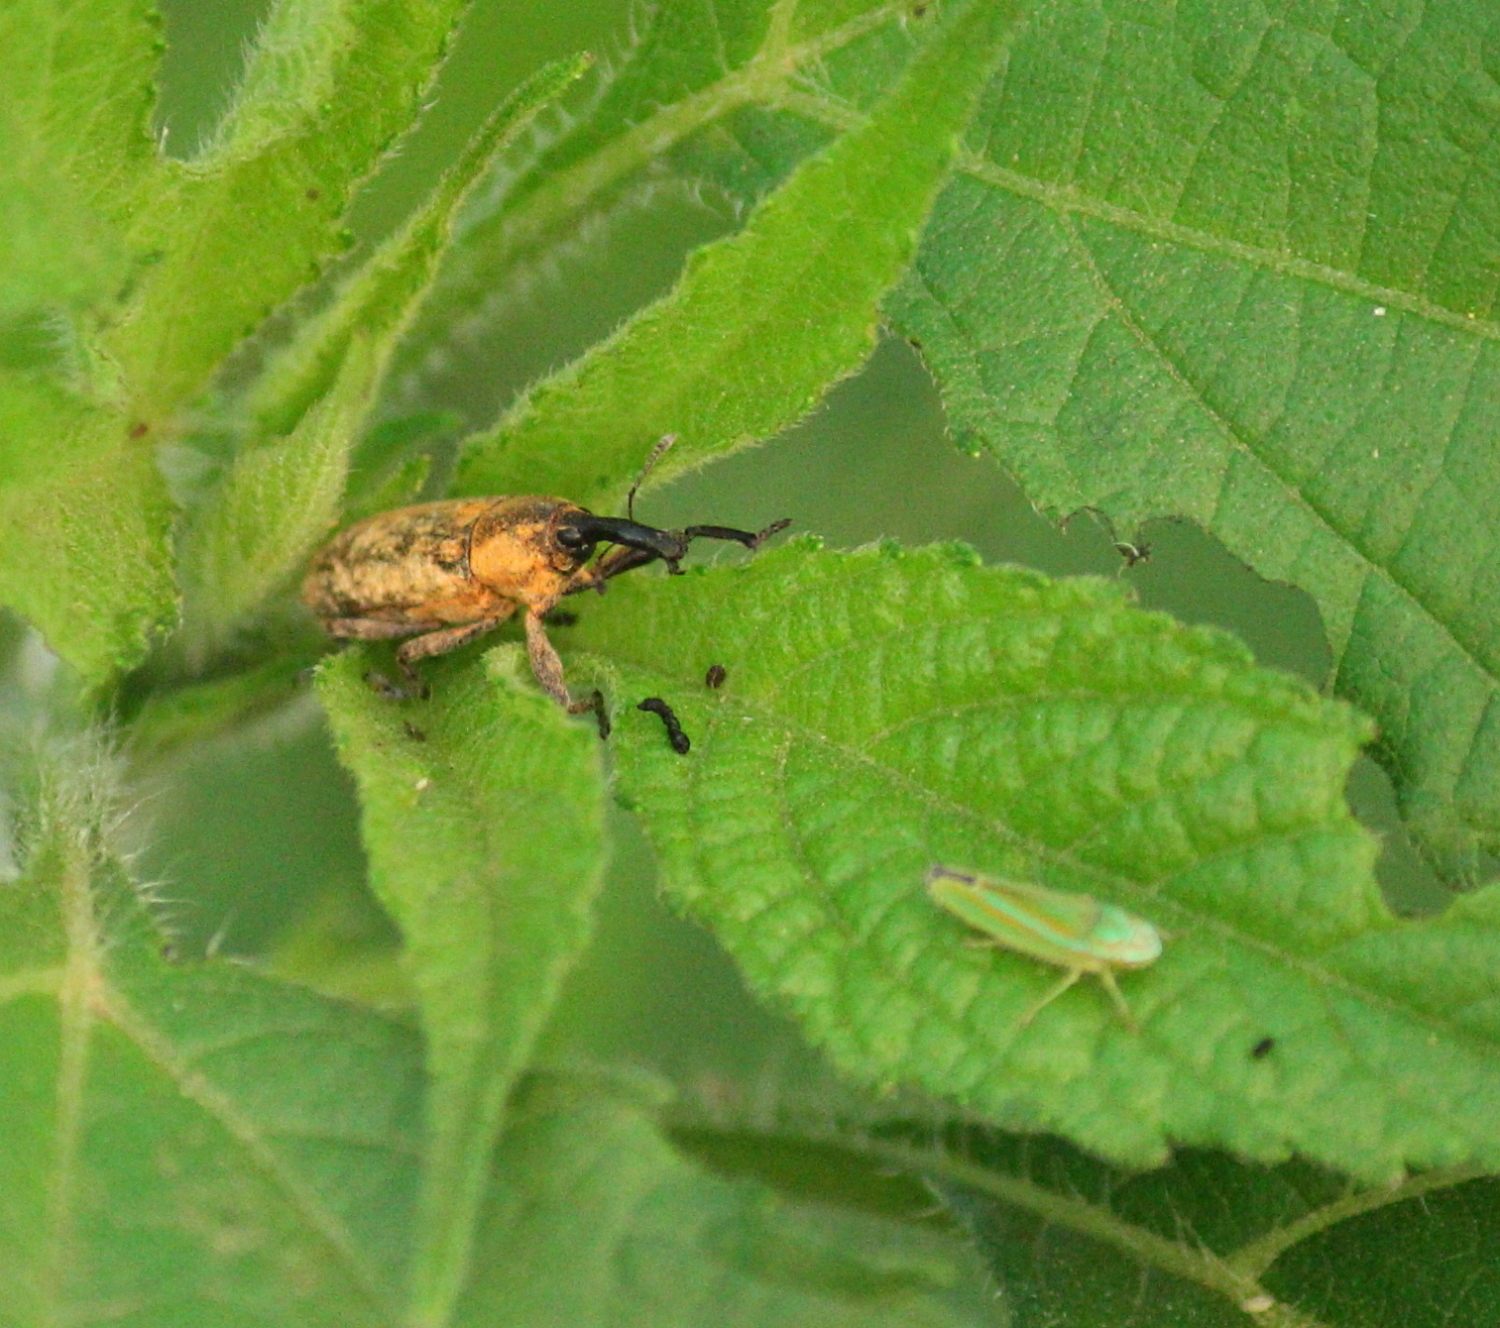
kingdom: Animalia
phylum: Arthropoda
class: Insecta
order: Coleoptera
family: Curculionidae
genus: Lixus
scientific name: Lixus scrobicollis
